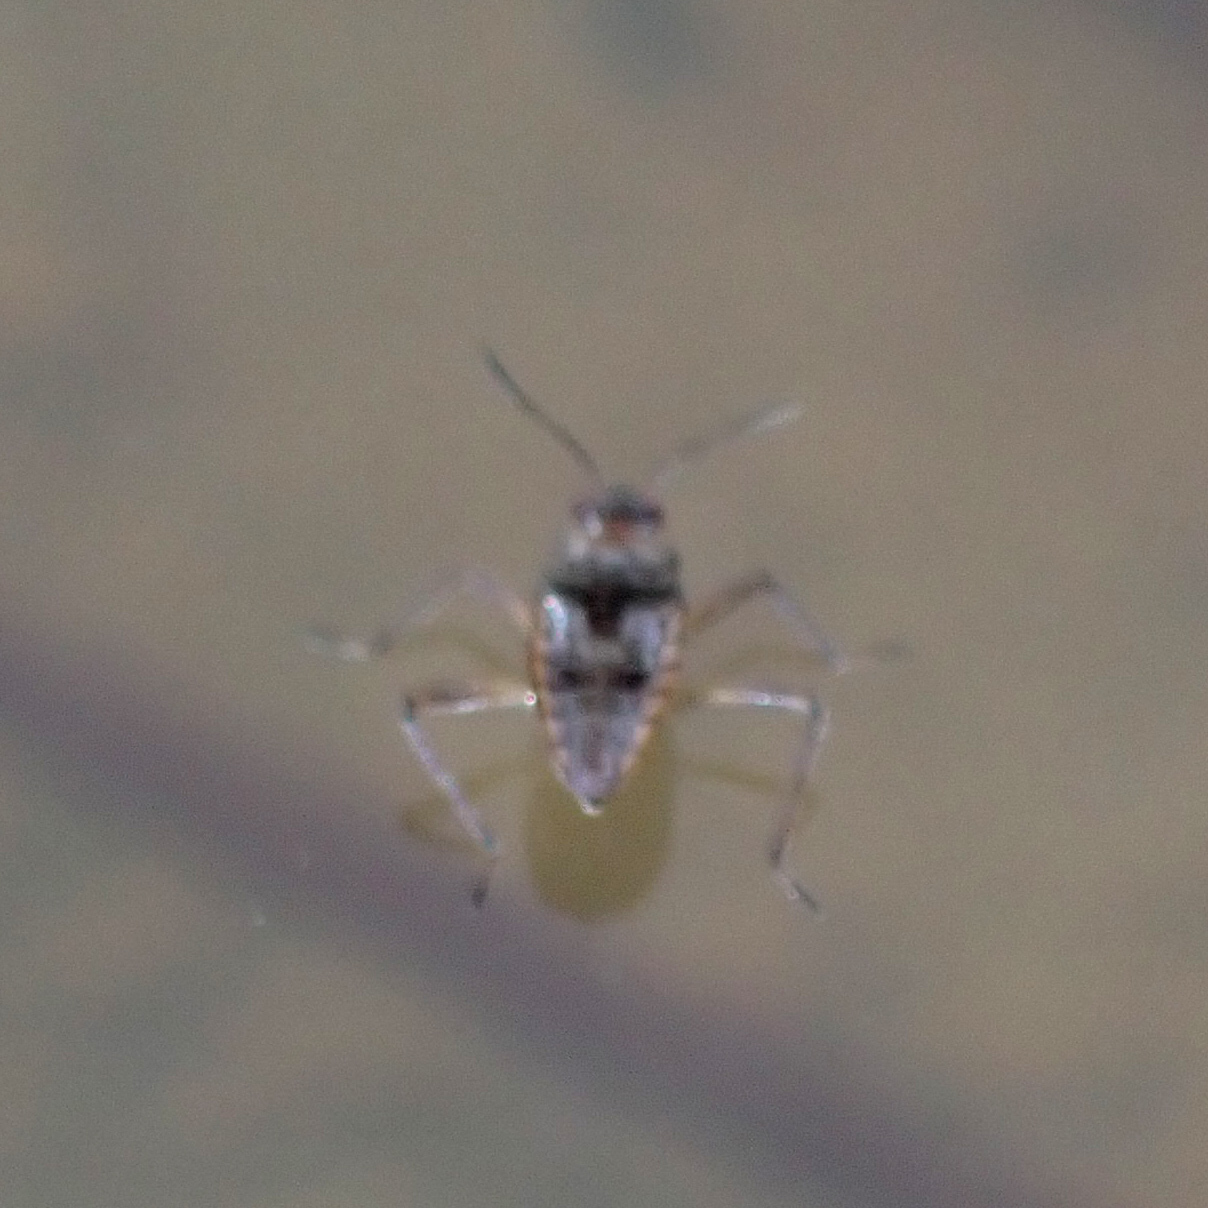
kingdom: Animalia
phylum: Arthropoda
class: Insecta
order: Hemiptera
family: Veliidae
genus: Microvelia
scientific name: Microvelia
